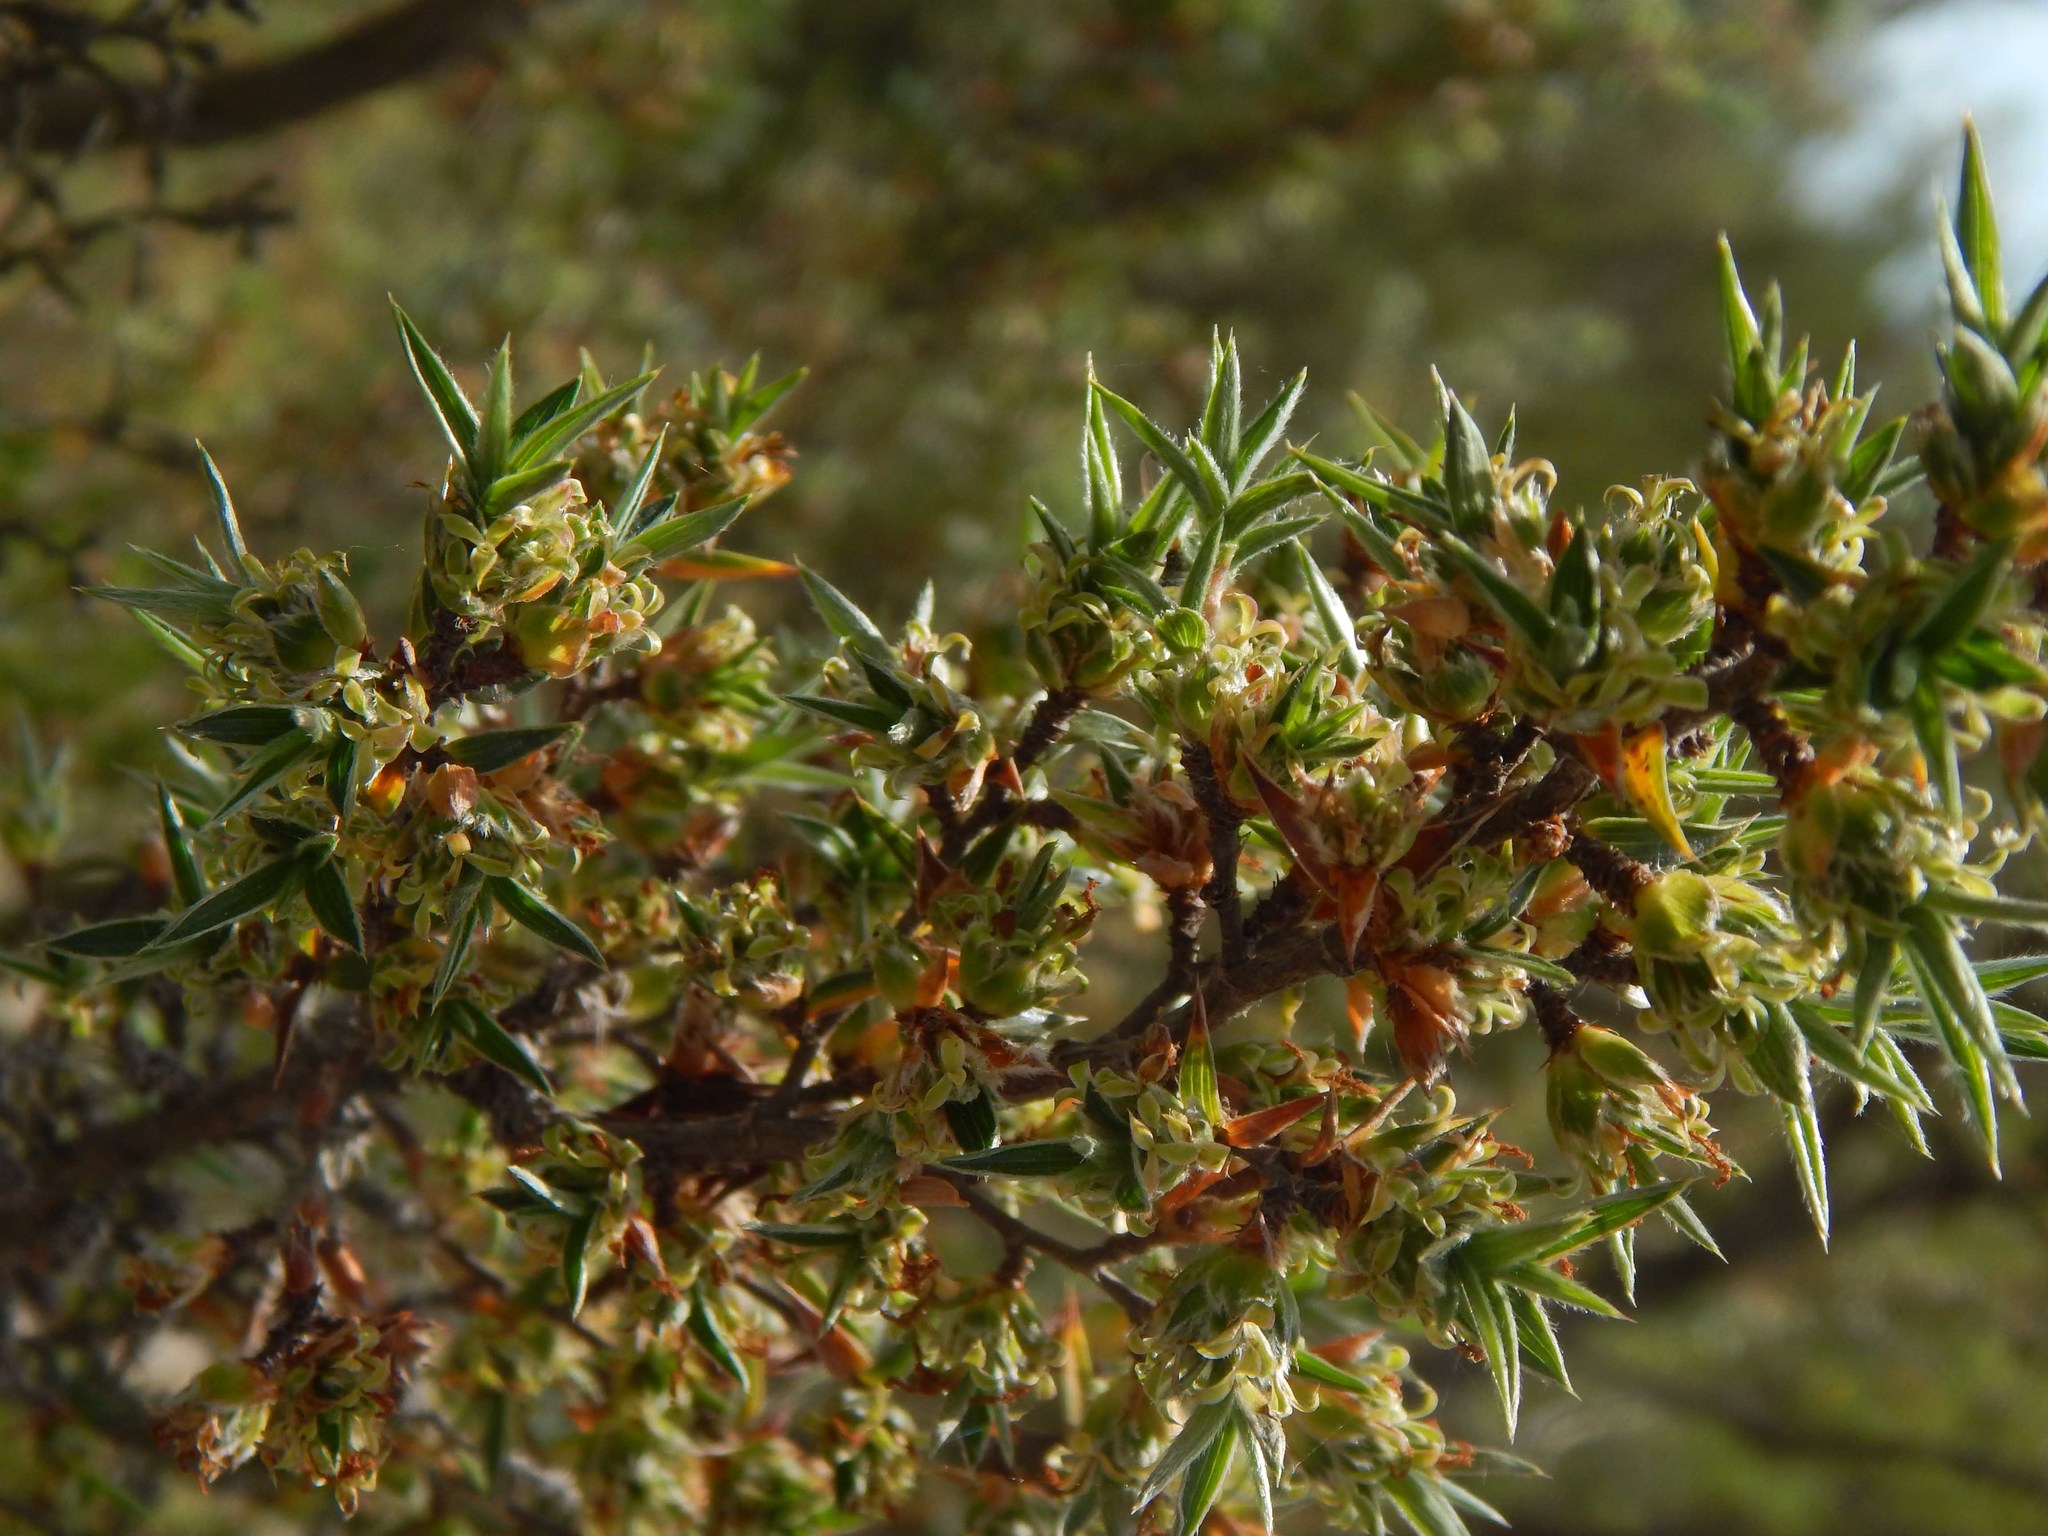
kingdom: Plantae
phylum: Tracheophyta
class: Magnoliopsida
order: Rosales
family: Rosaceae
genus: Cliffortia
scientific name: Cliffortia ruscifolia
